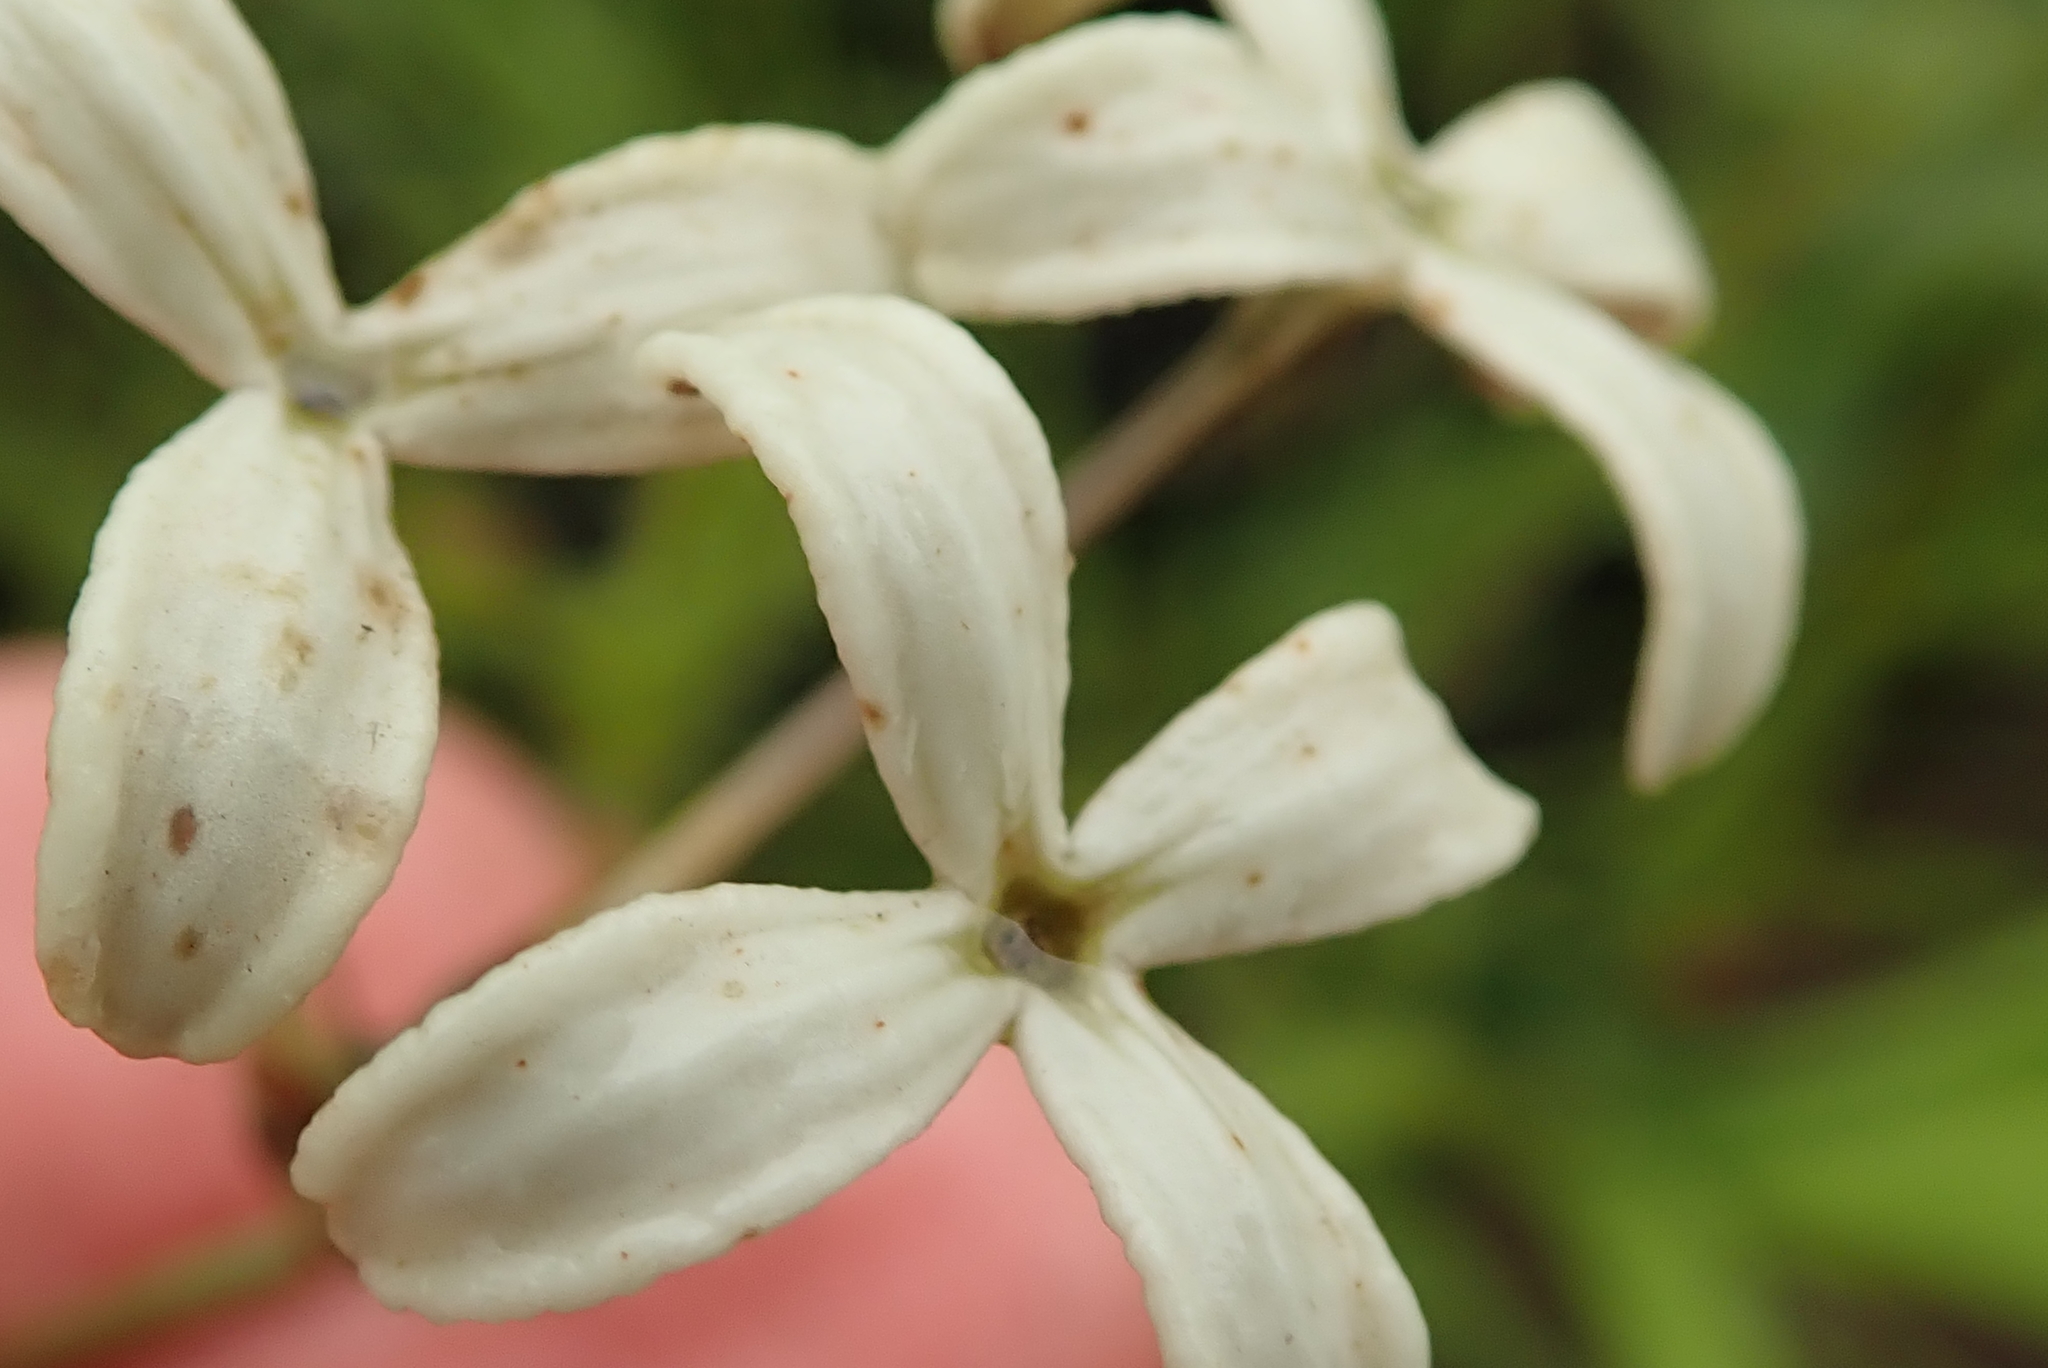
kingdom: Plantae
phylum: Tracheophyta
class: Magnoliopsida
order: Gentianales
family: Rubiaceae
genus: Kohautia
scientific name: Kohautia amatymbica
